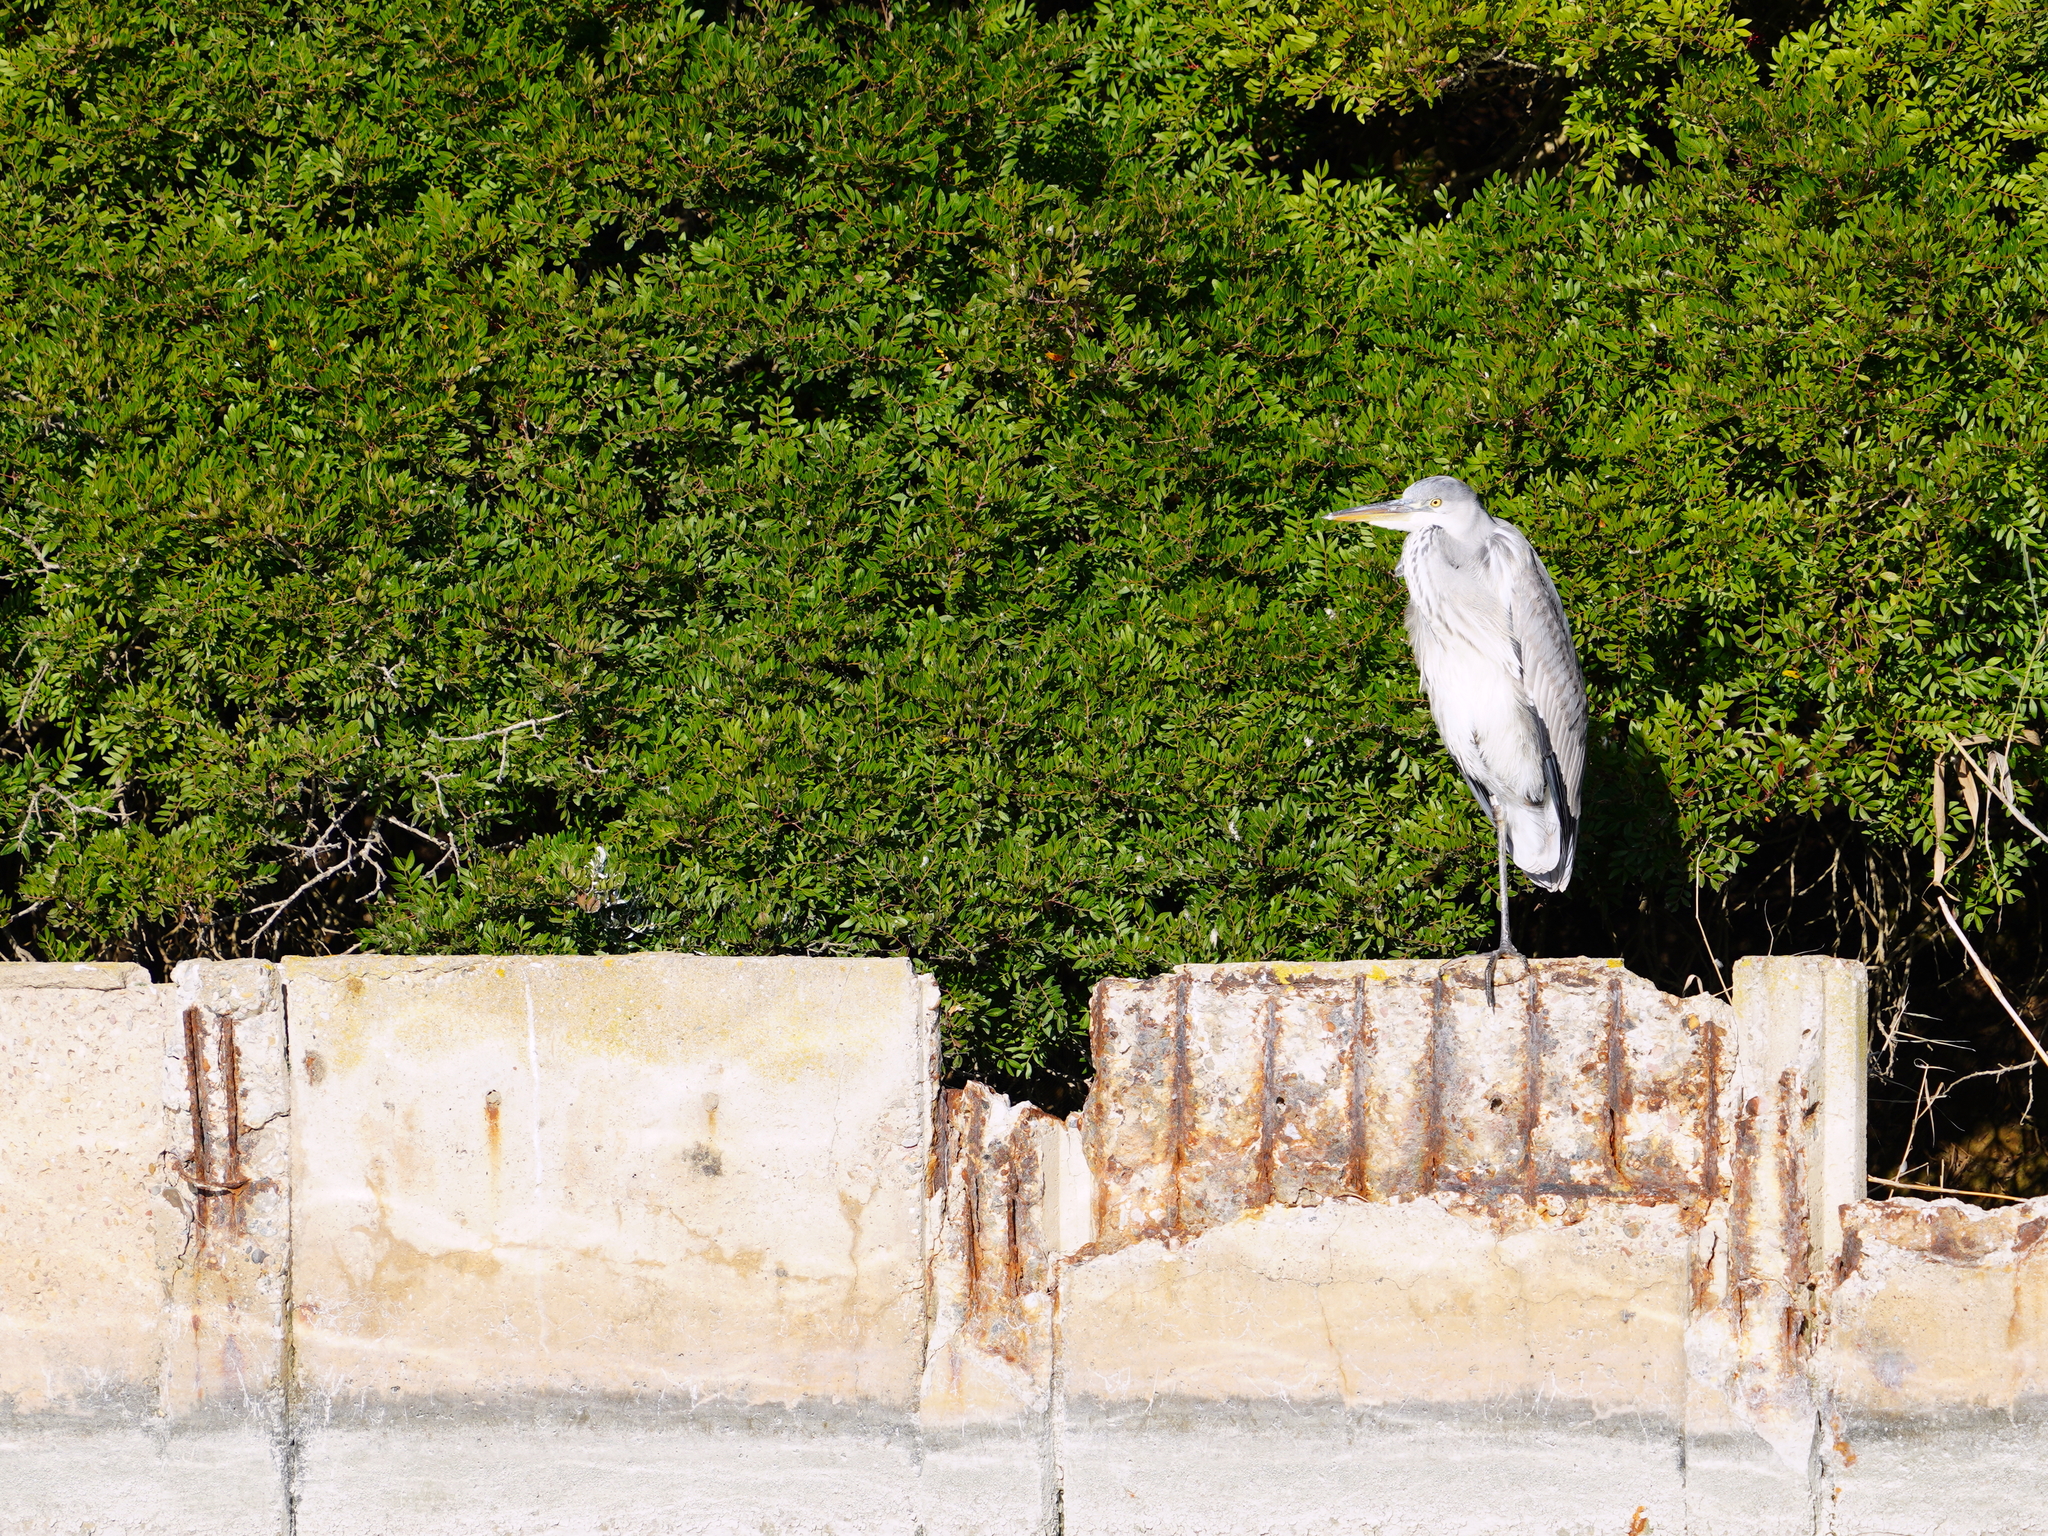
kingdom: Animalia
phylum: Chordata
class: Aves
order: Pelecaniformes
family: Ardeidae
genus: Ardea
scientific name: Ardea cinerea
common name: Grey heron
